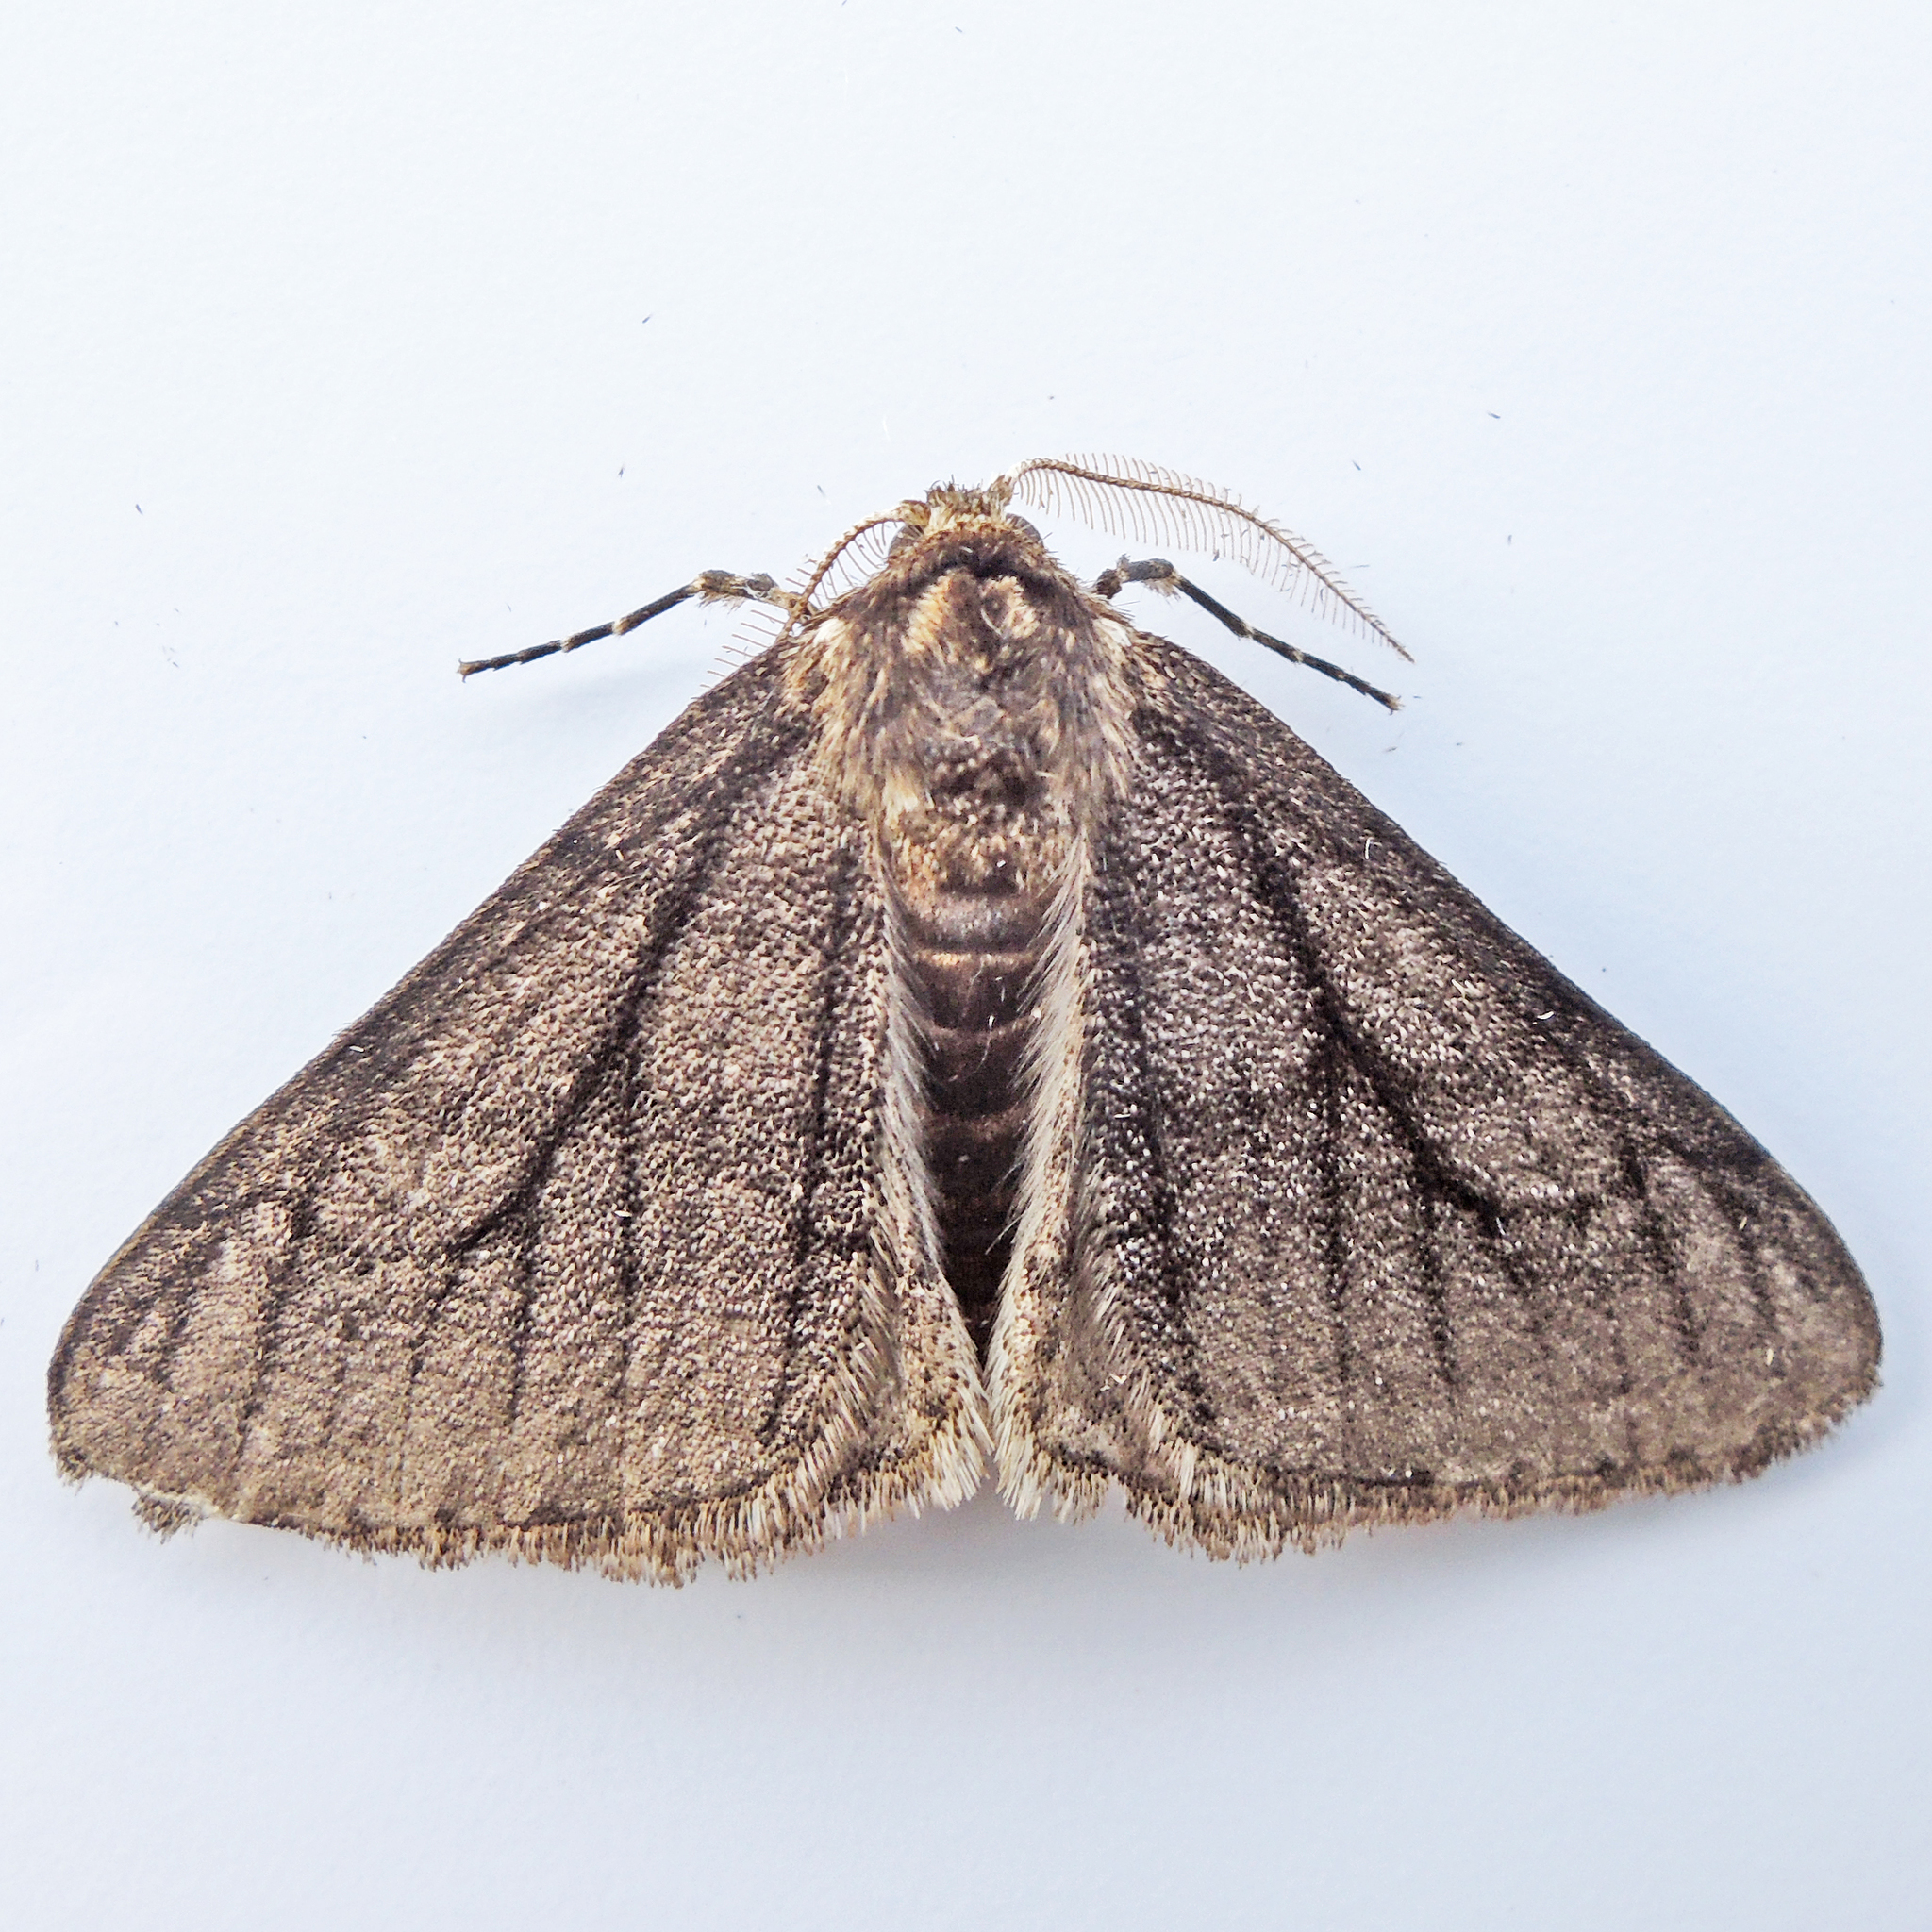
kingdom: Animalia
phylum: Arthropoda
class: Insecta
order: Lepidoptera
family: Geometridae
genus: Phigalia
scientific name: Phigalia titea
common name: Spiny looper
